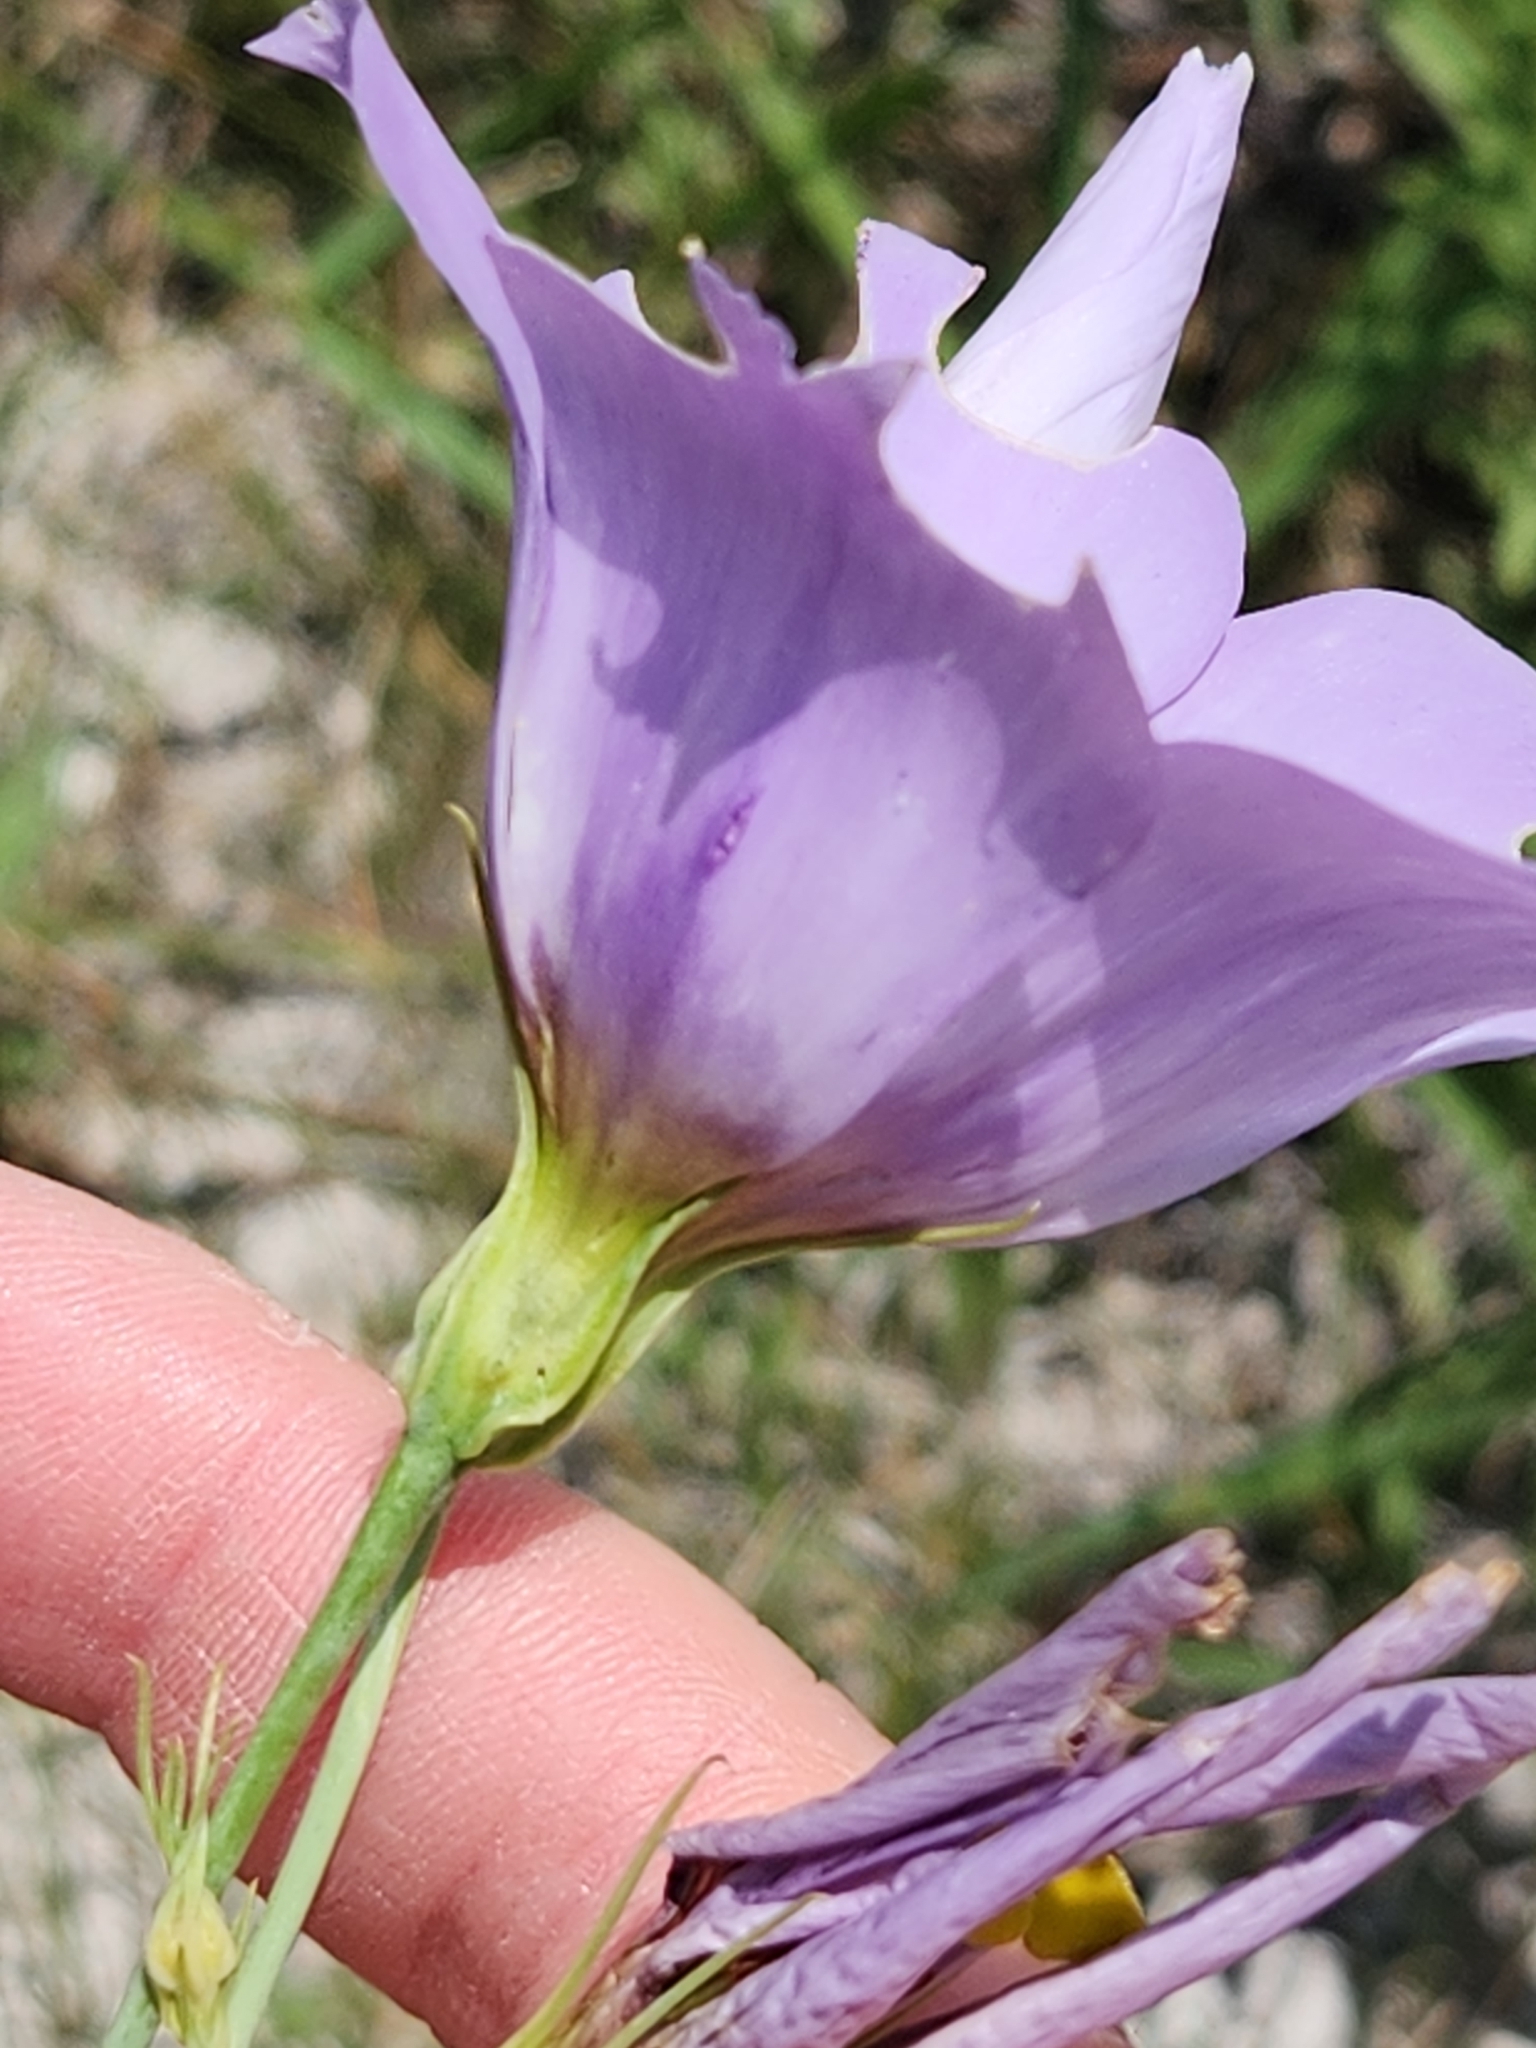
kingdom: Plantae
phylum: Tracheophyta
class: Magnoliopsida
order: Gentianales
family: Gentianaceae
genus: Eustoma
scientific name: Eustoma russellianum
